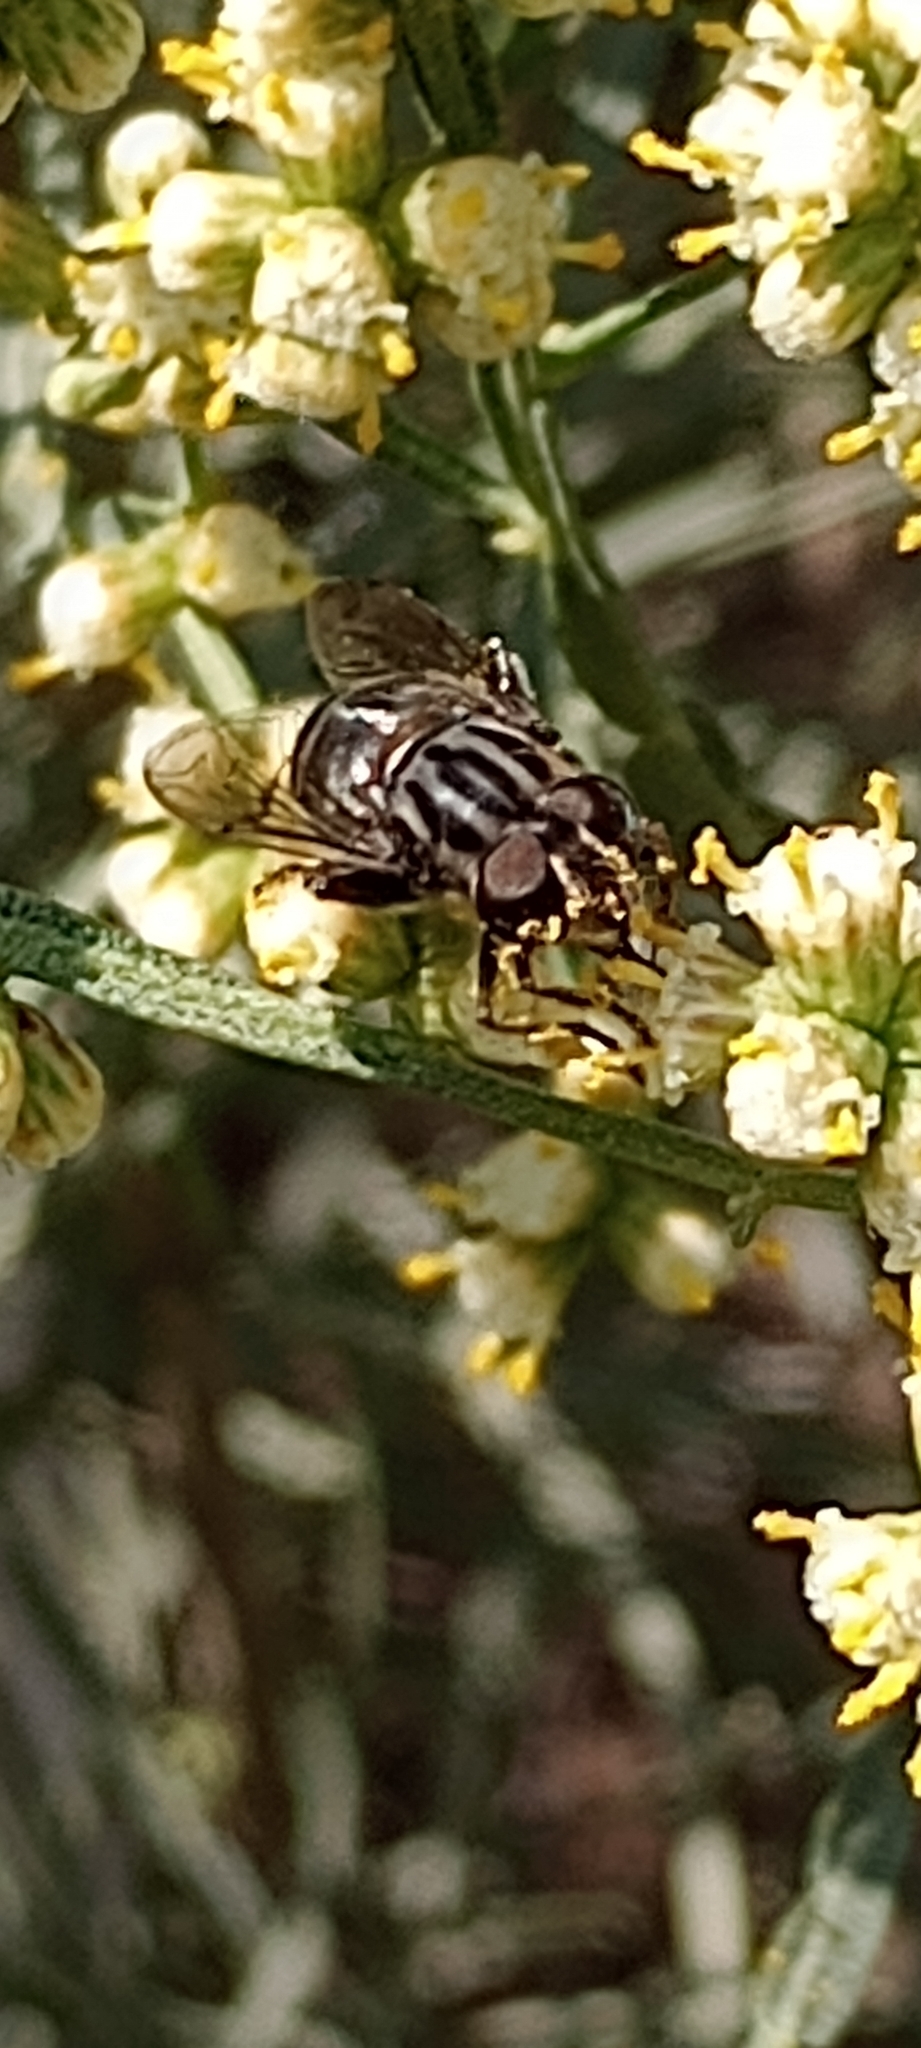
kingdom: Animalia
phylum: Arthropoda
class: Insecta
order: Diptera
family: Syrphidae
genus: Palpada
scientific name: Palpada furcata
